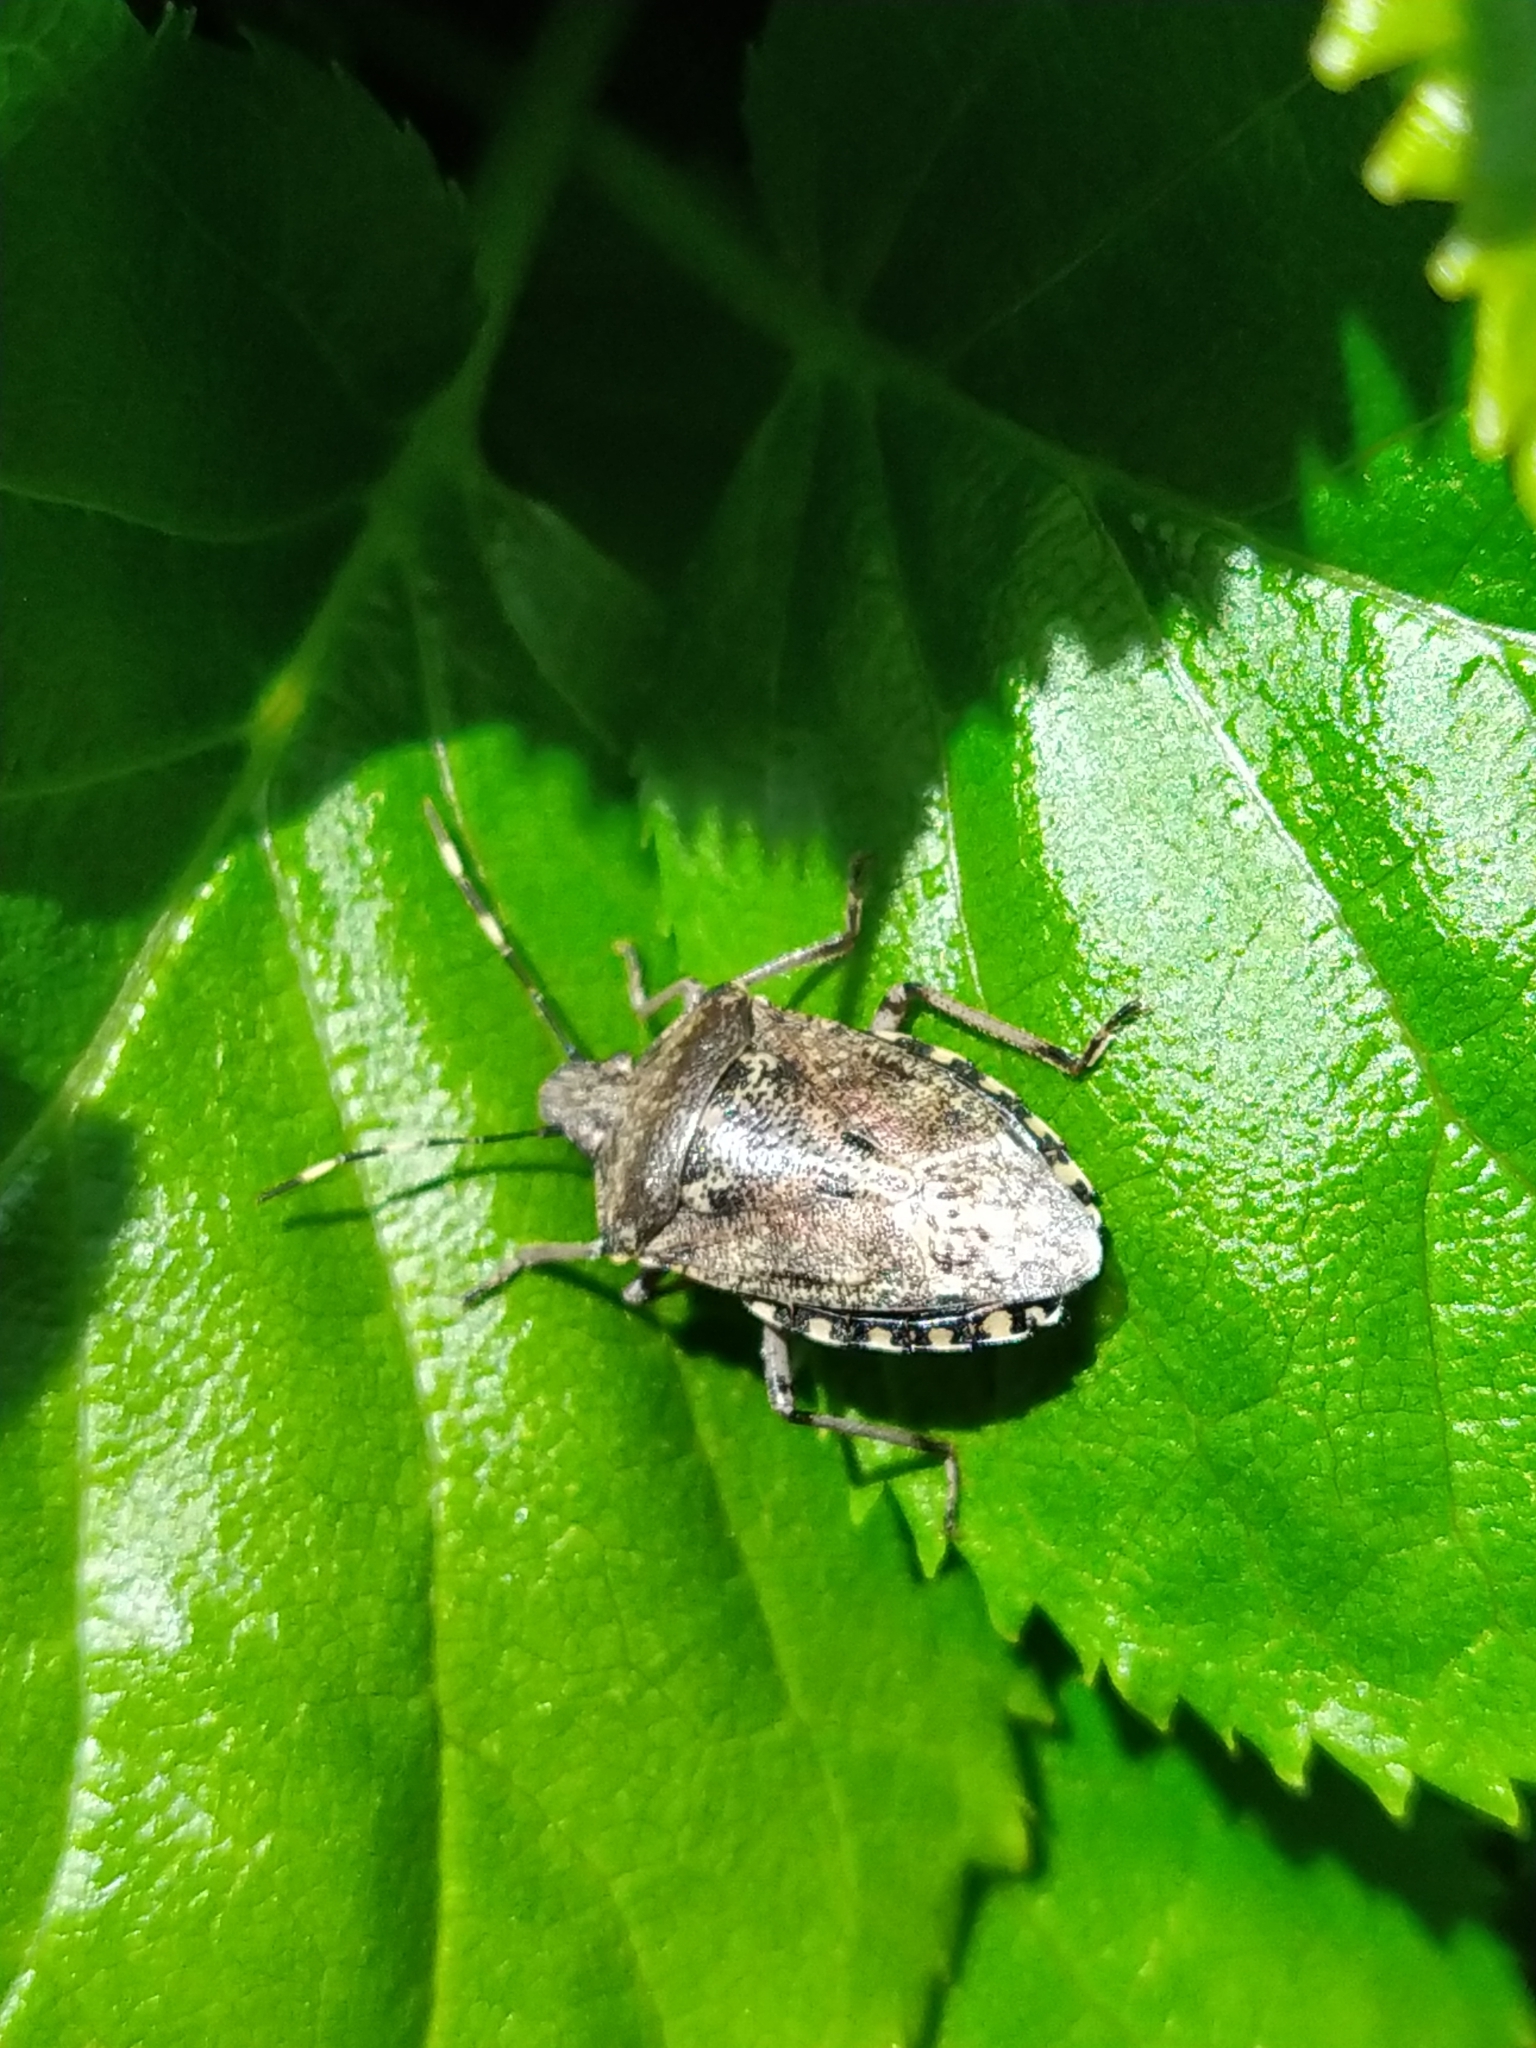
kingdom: Animalia
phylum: Arthropoda
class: Insecta
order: Hemiptera
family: Pentatomidae
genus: Rhaphigaster
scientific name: Rhaphigaster nebulosa
